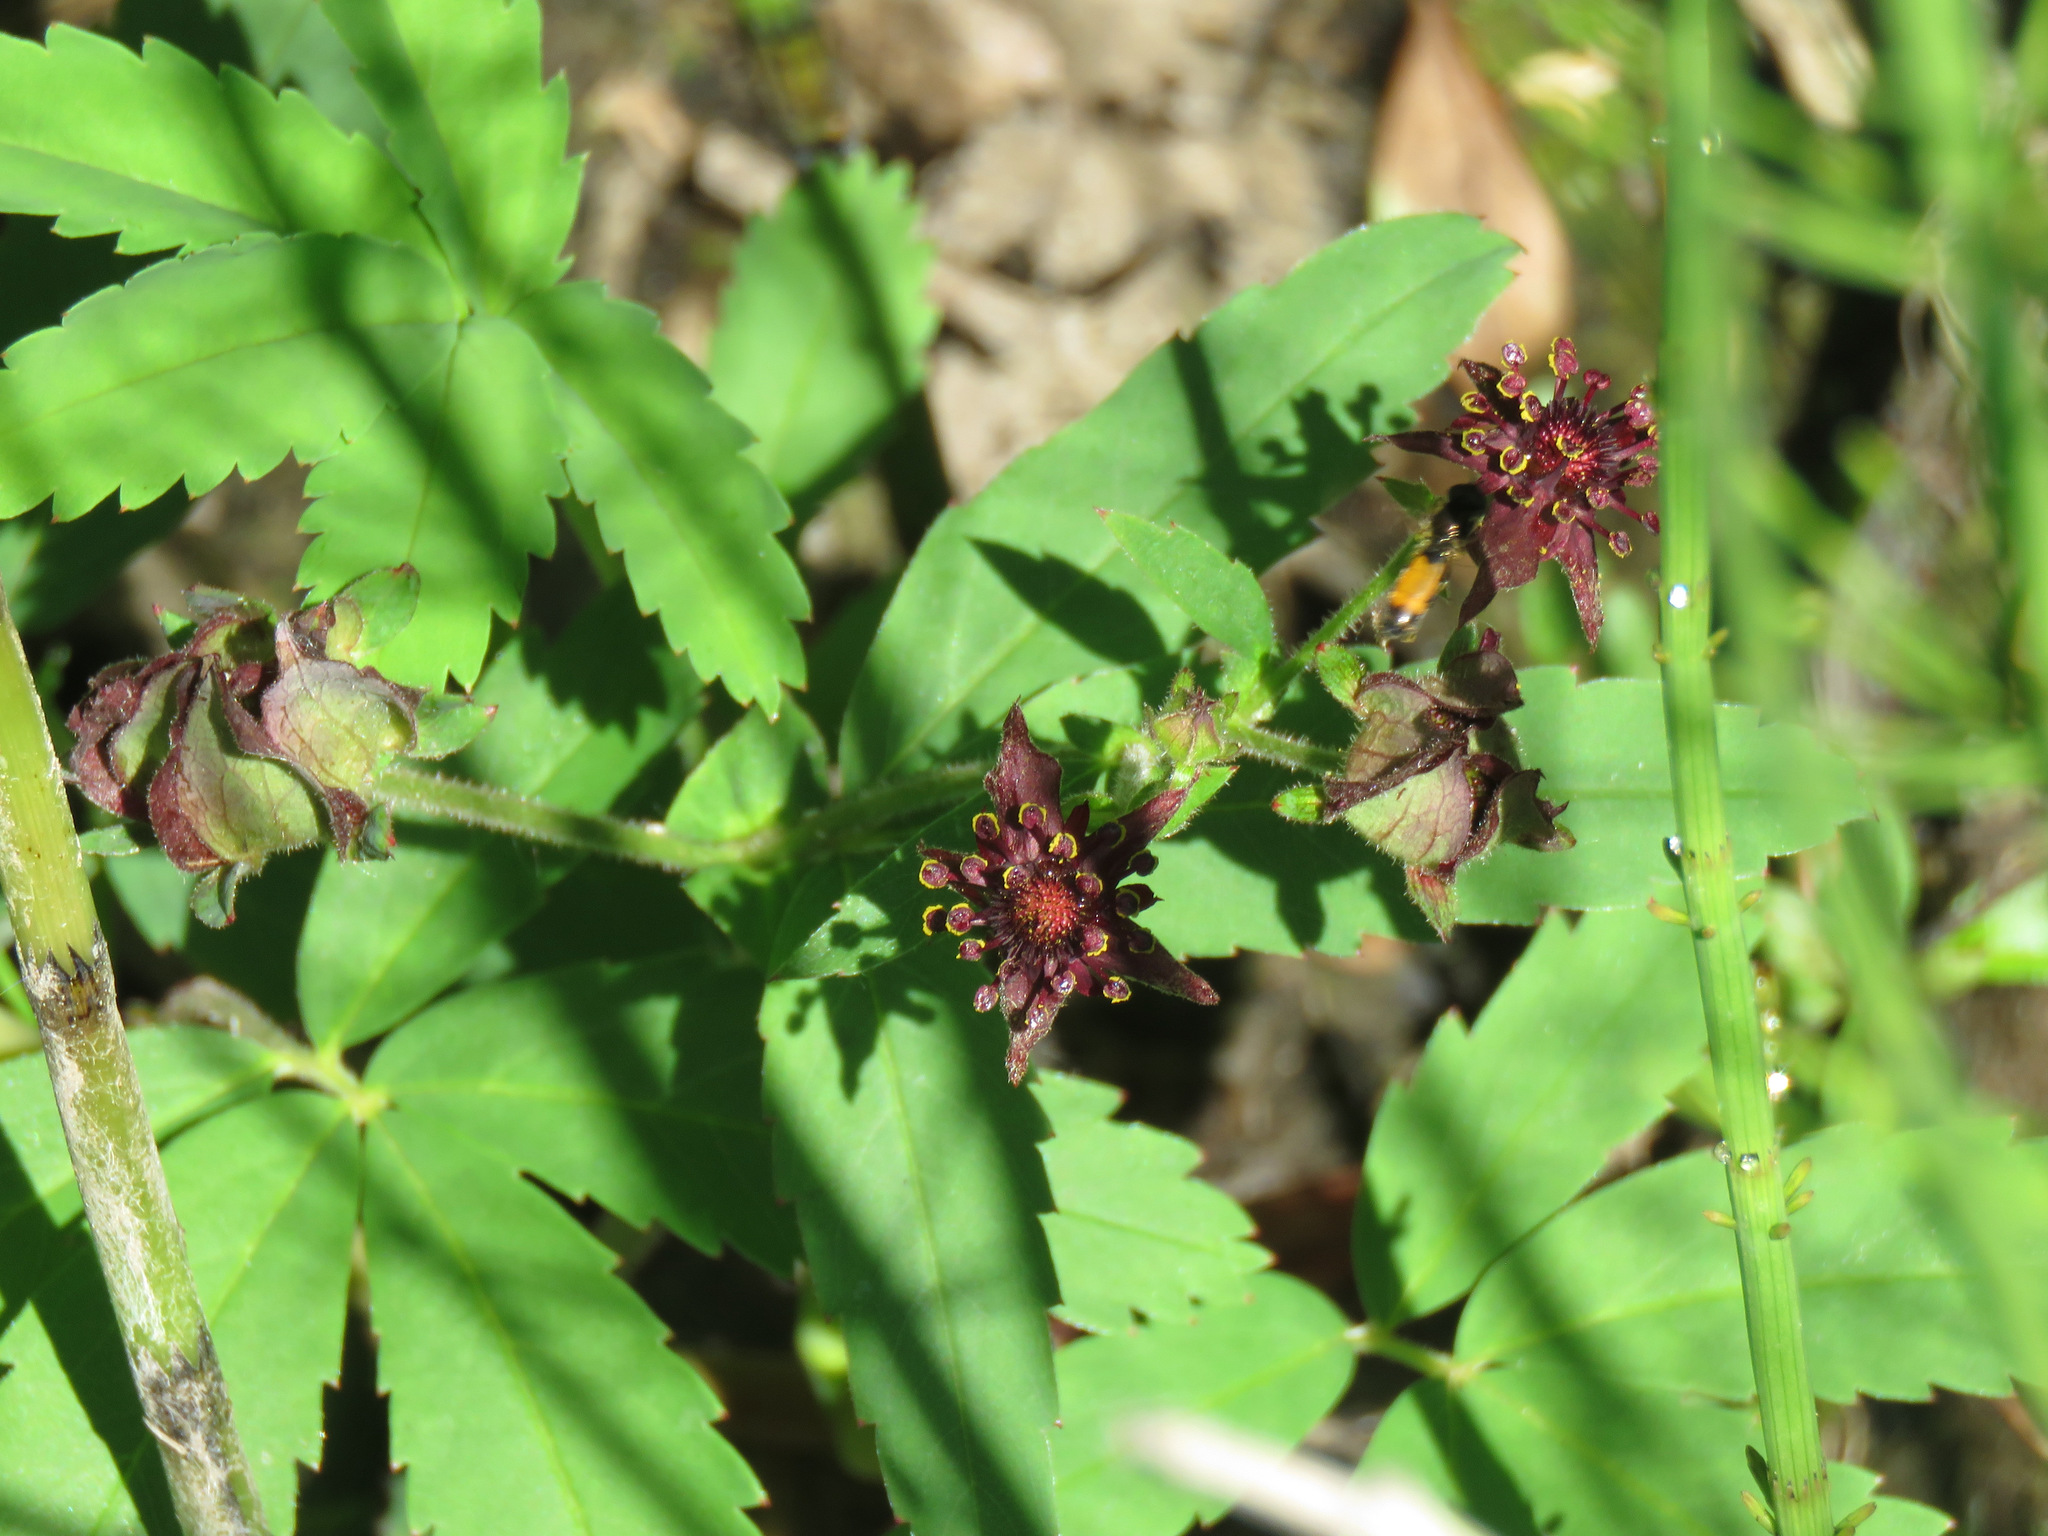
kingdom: Plantae
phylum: Tracheophyta
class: Magnoliopsida
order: Rosales
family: Rosaceae
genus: Comarum
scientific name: Comarum palustre
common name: Marsh cinquefoil
